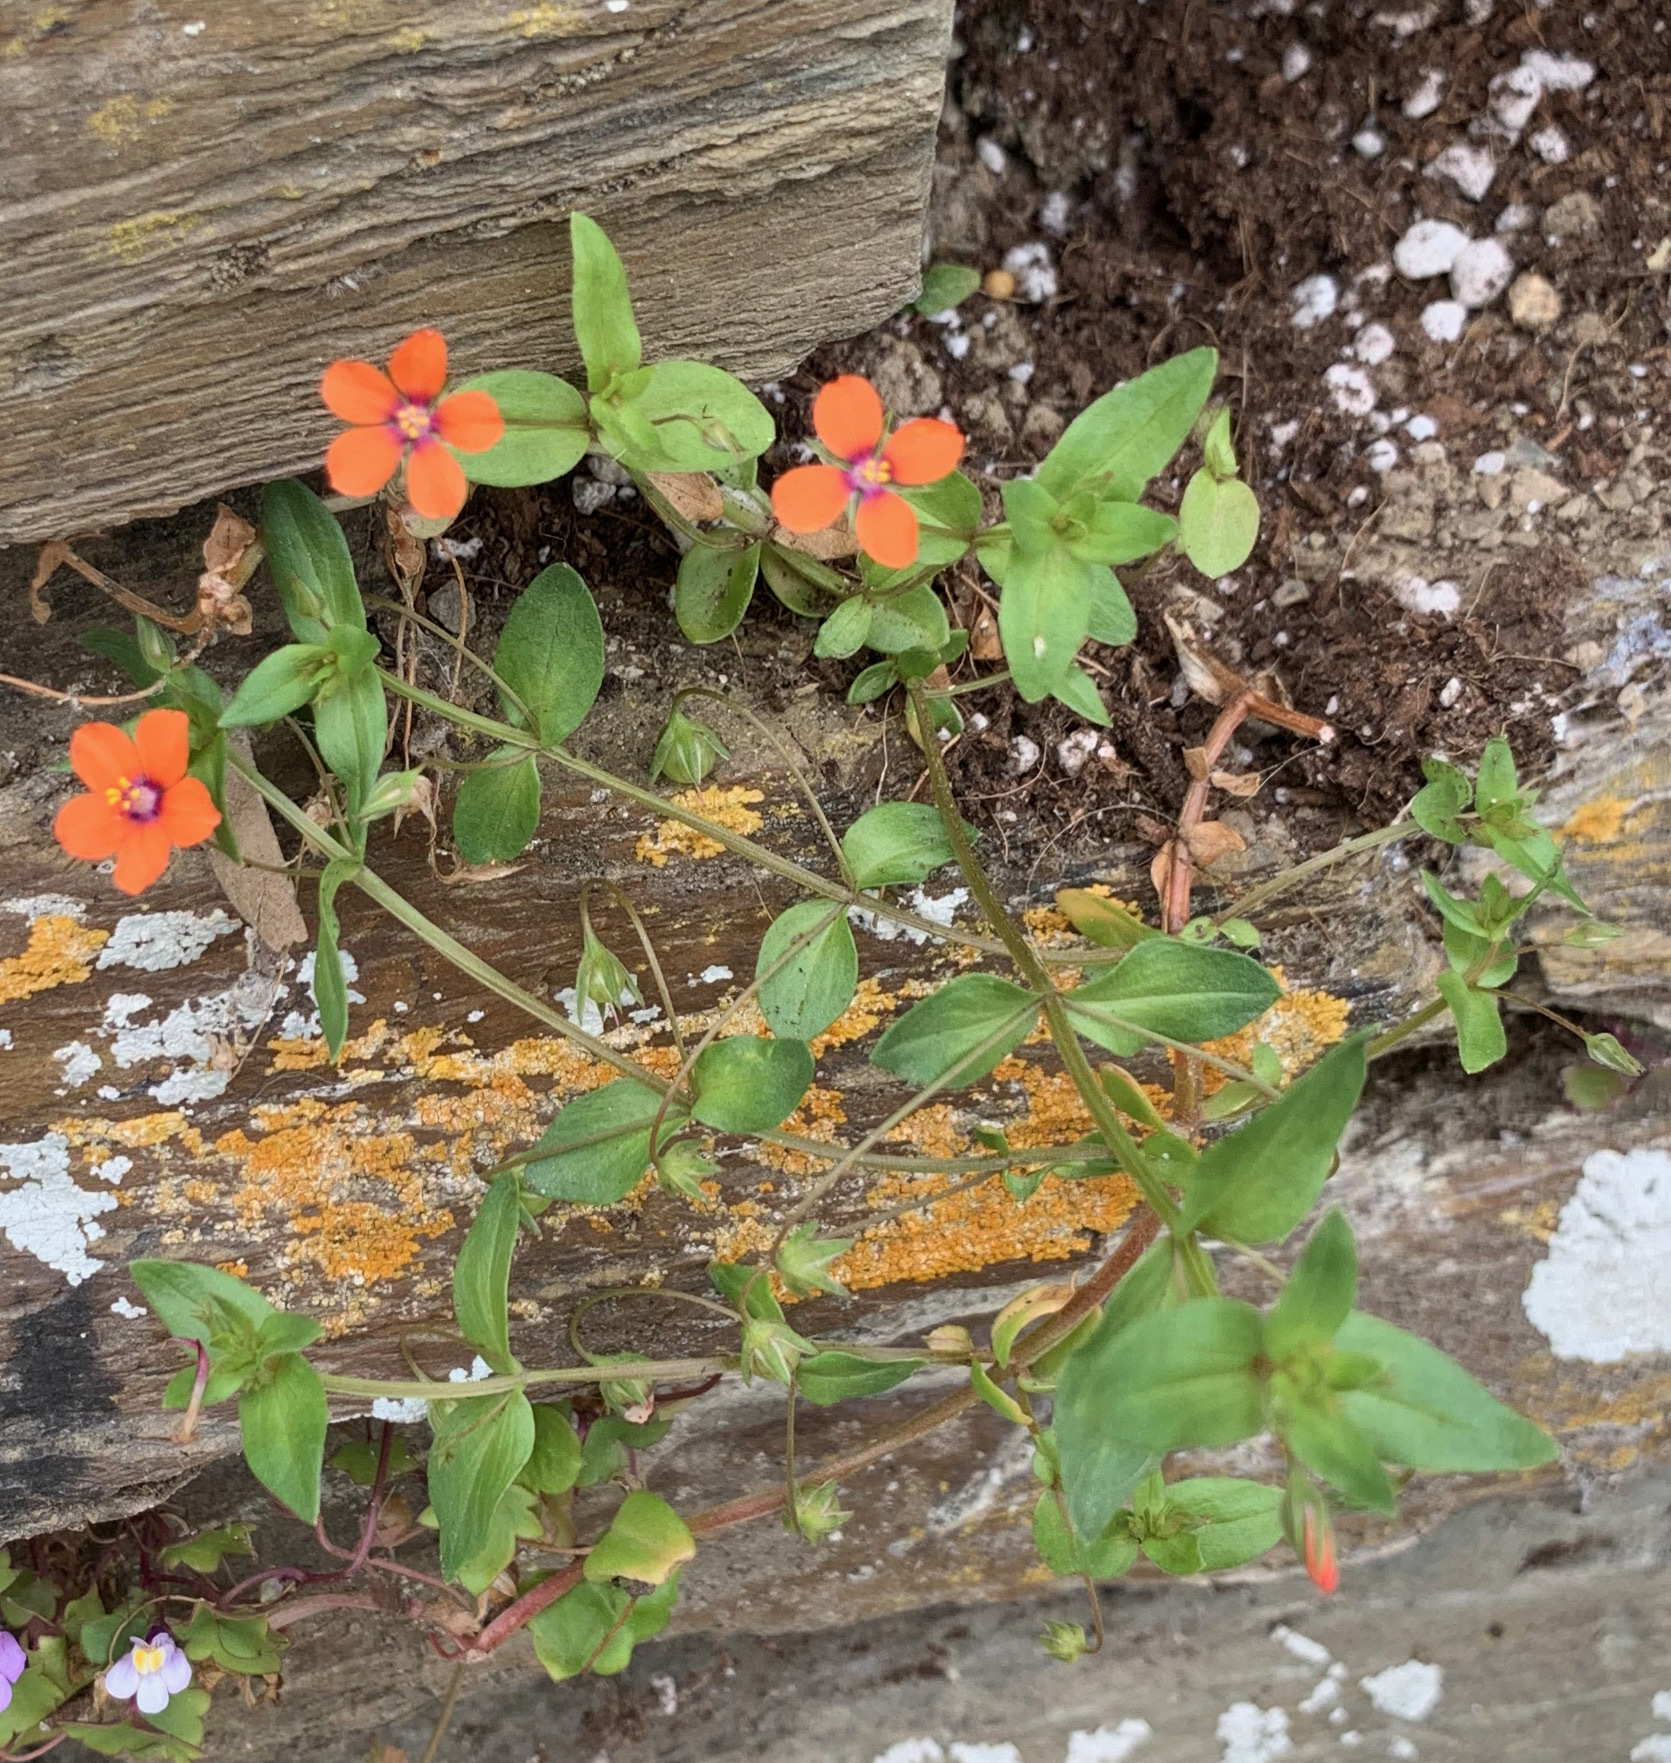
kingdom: Plantae
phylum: Tracheophyta
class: Magnoliopsida
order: Ericales
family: Primulaceae
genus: Lysimachia
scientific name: Lysimachia arvensis
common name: Scarlet pimpernel
